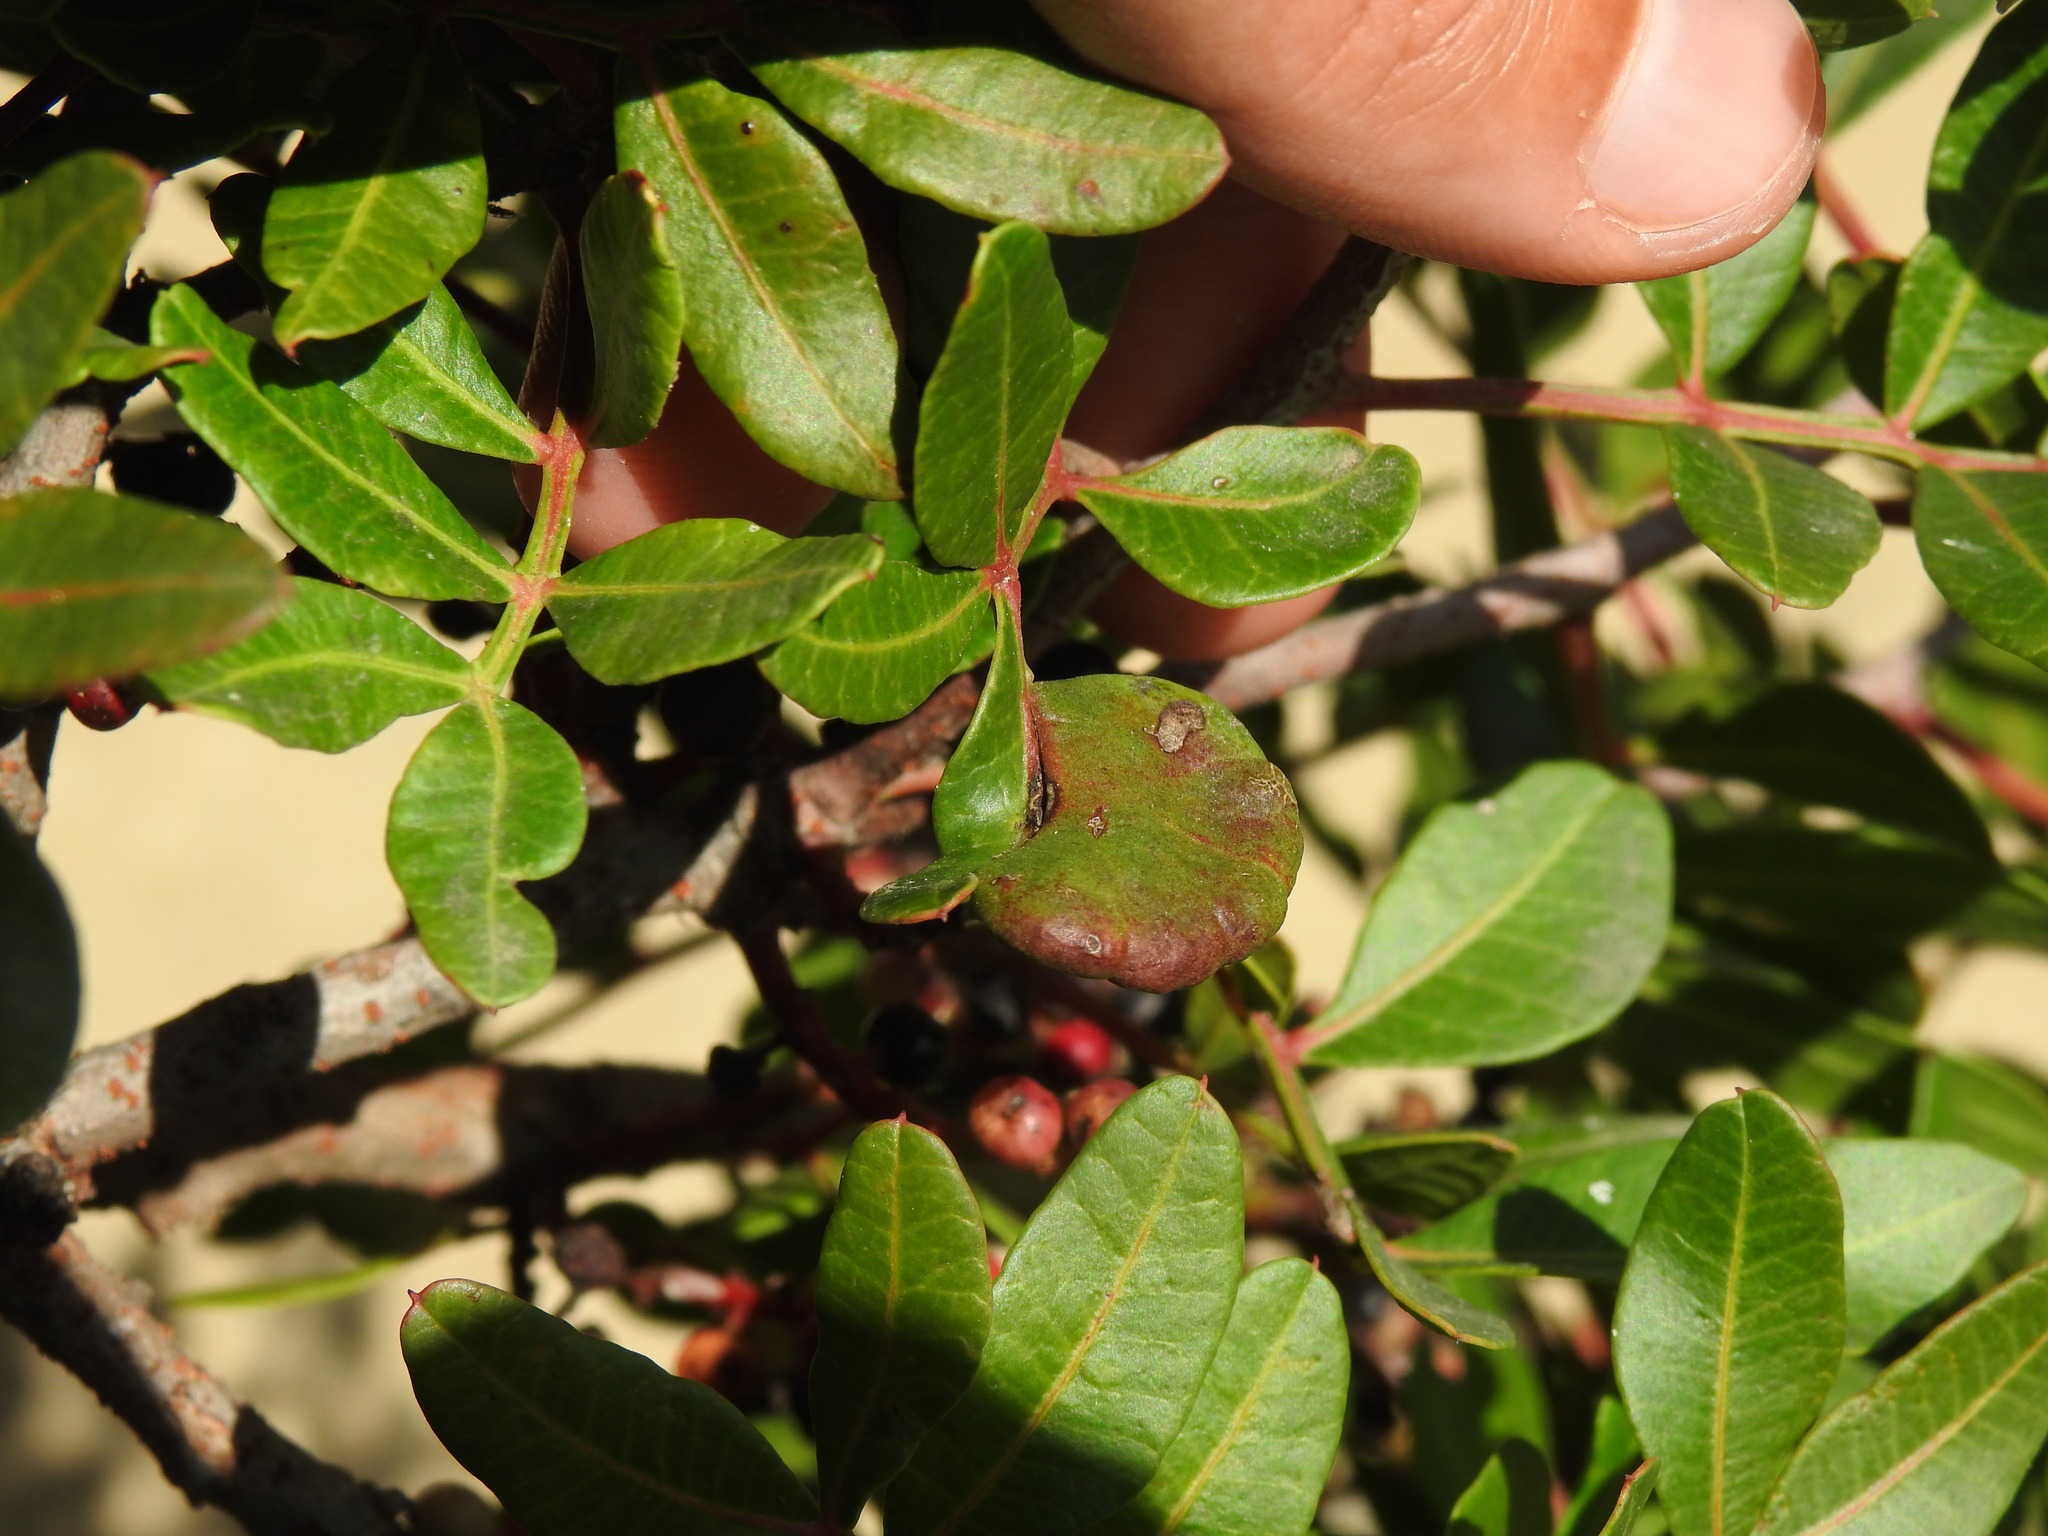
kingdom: Animalia
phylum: Arthropoda
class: Insecta
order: Hemiptera
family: Aphididae
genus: Aploneura
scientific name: Aploneura lentisci
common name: Mealy grass root aphid
